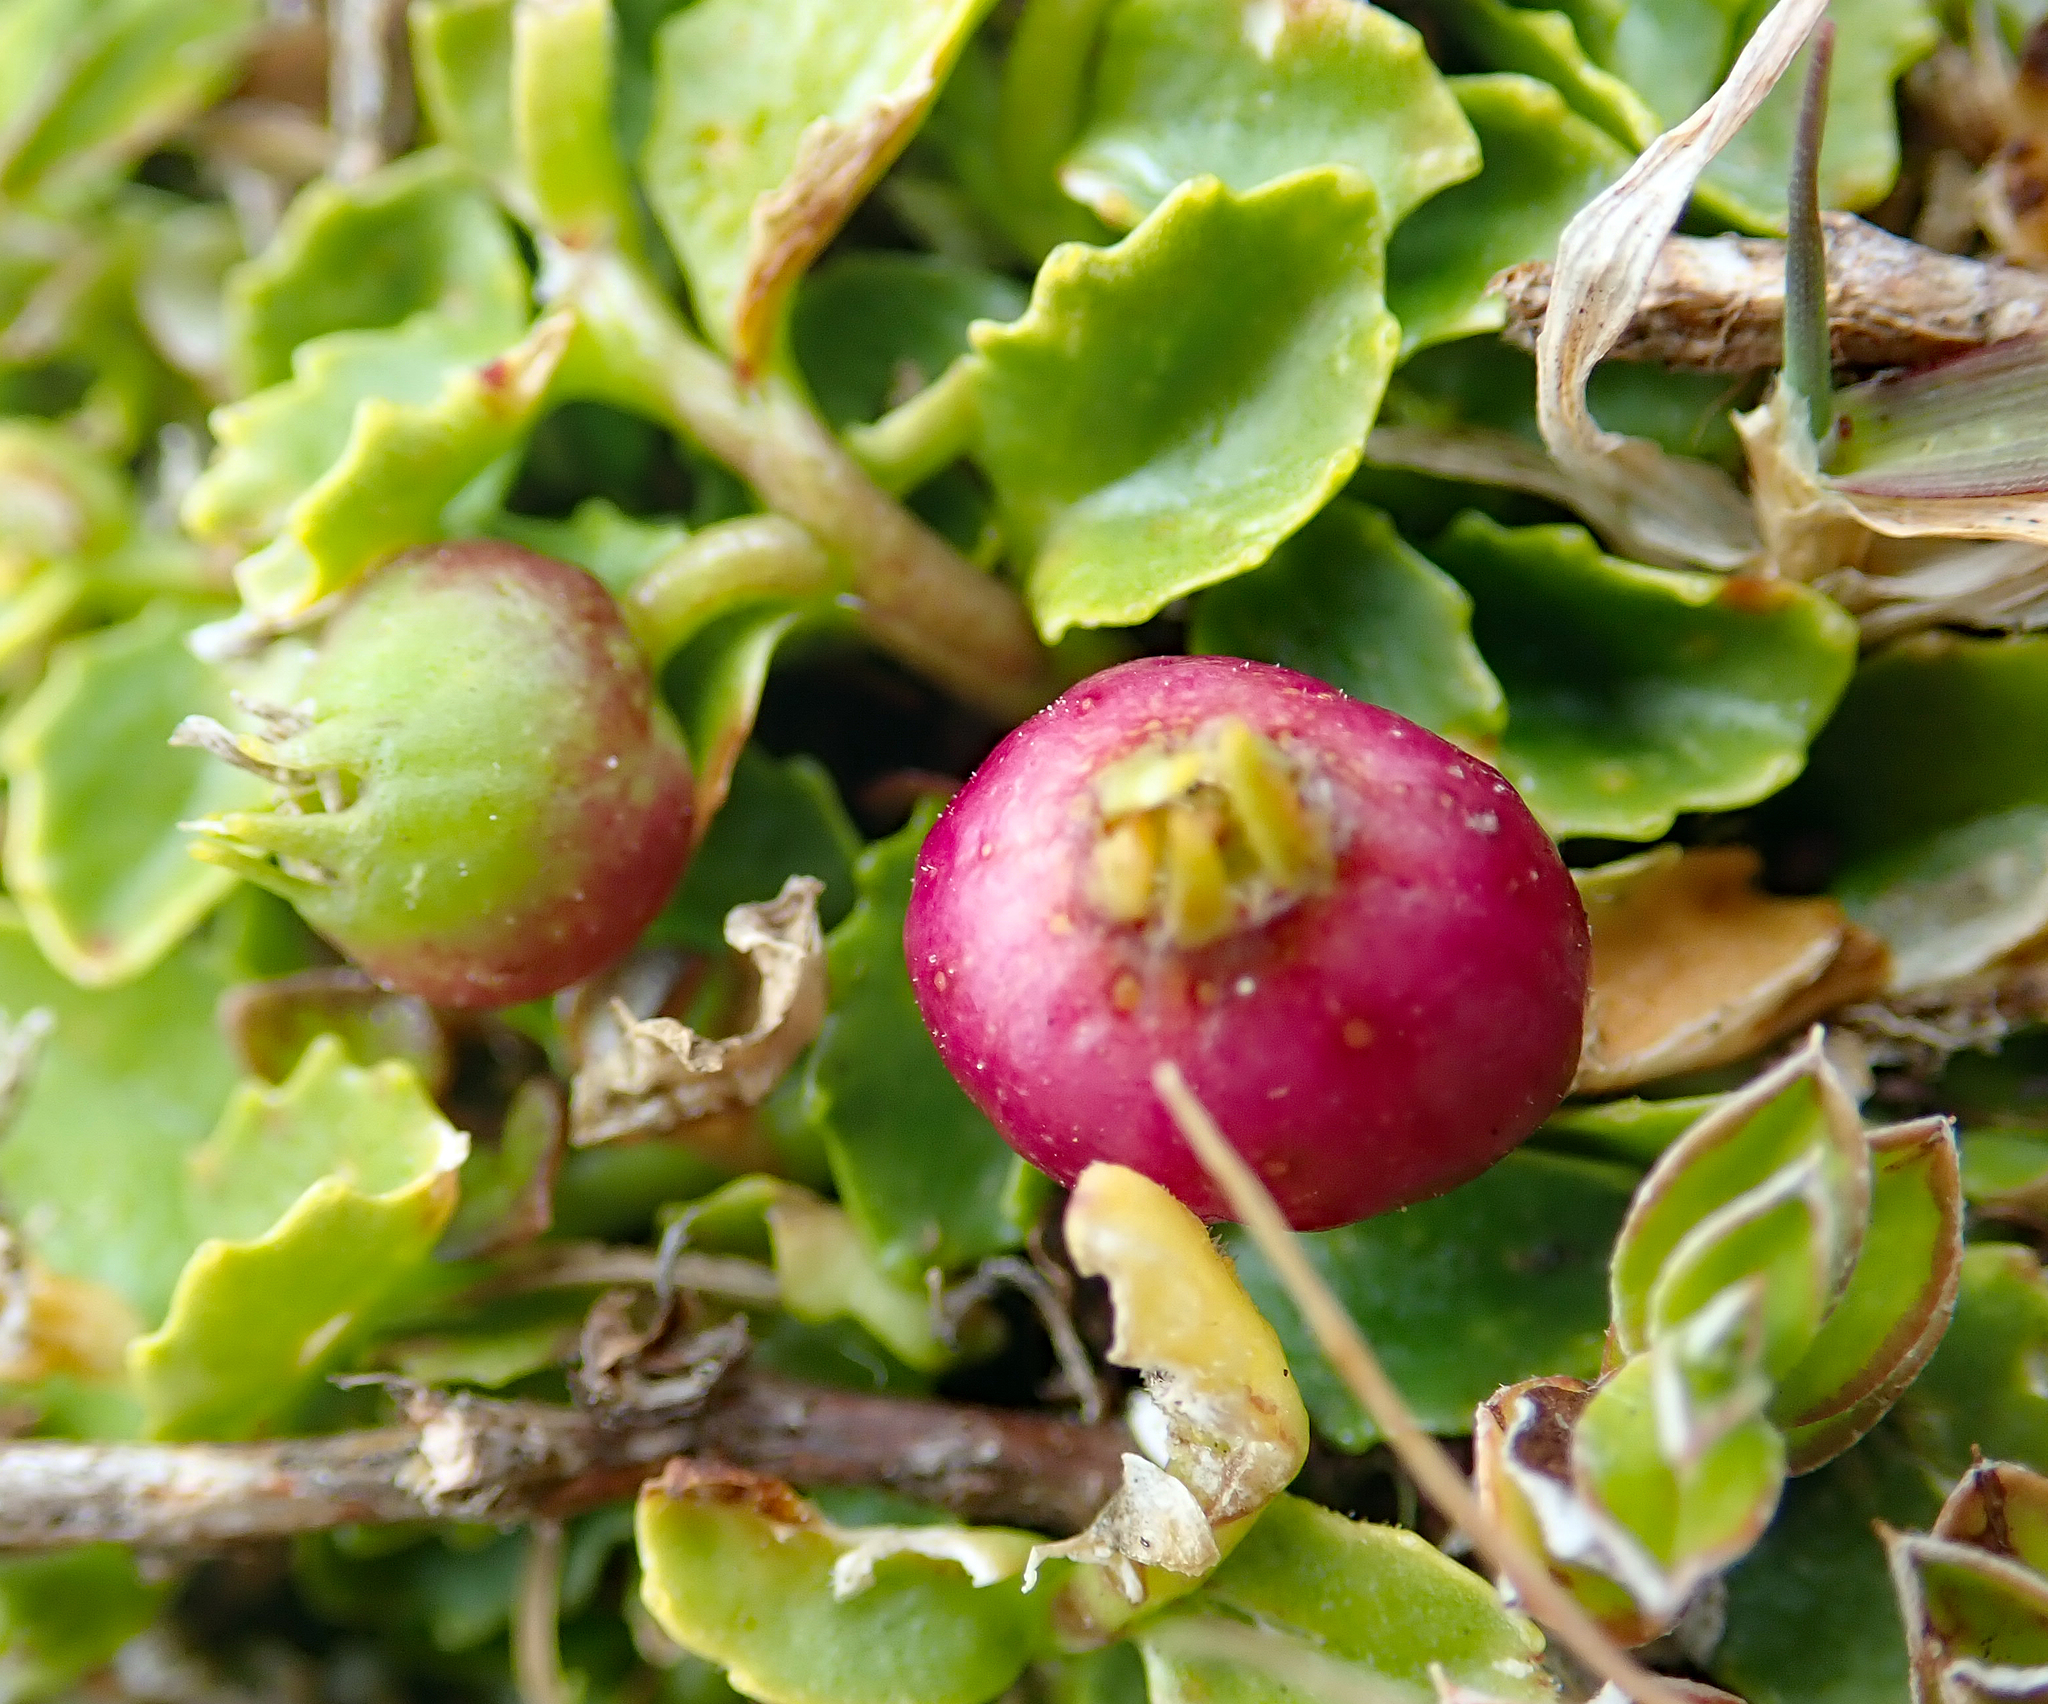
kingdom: Plantae
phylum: Tracheophyta
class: Magnoliopsida
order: Asterales
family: Campanulaceae
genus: Lobelia
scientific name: Lobelia arenaria
